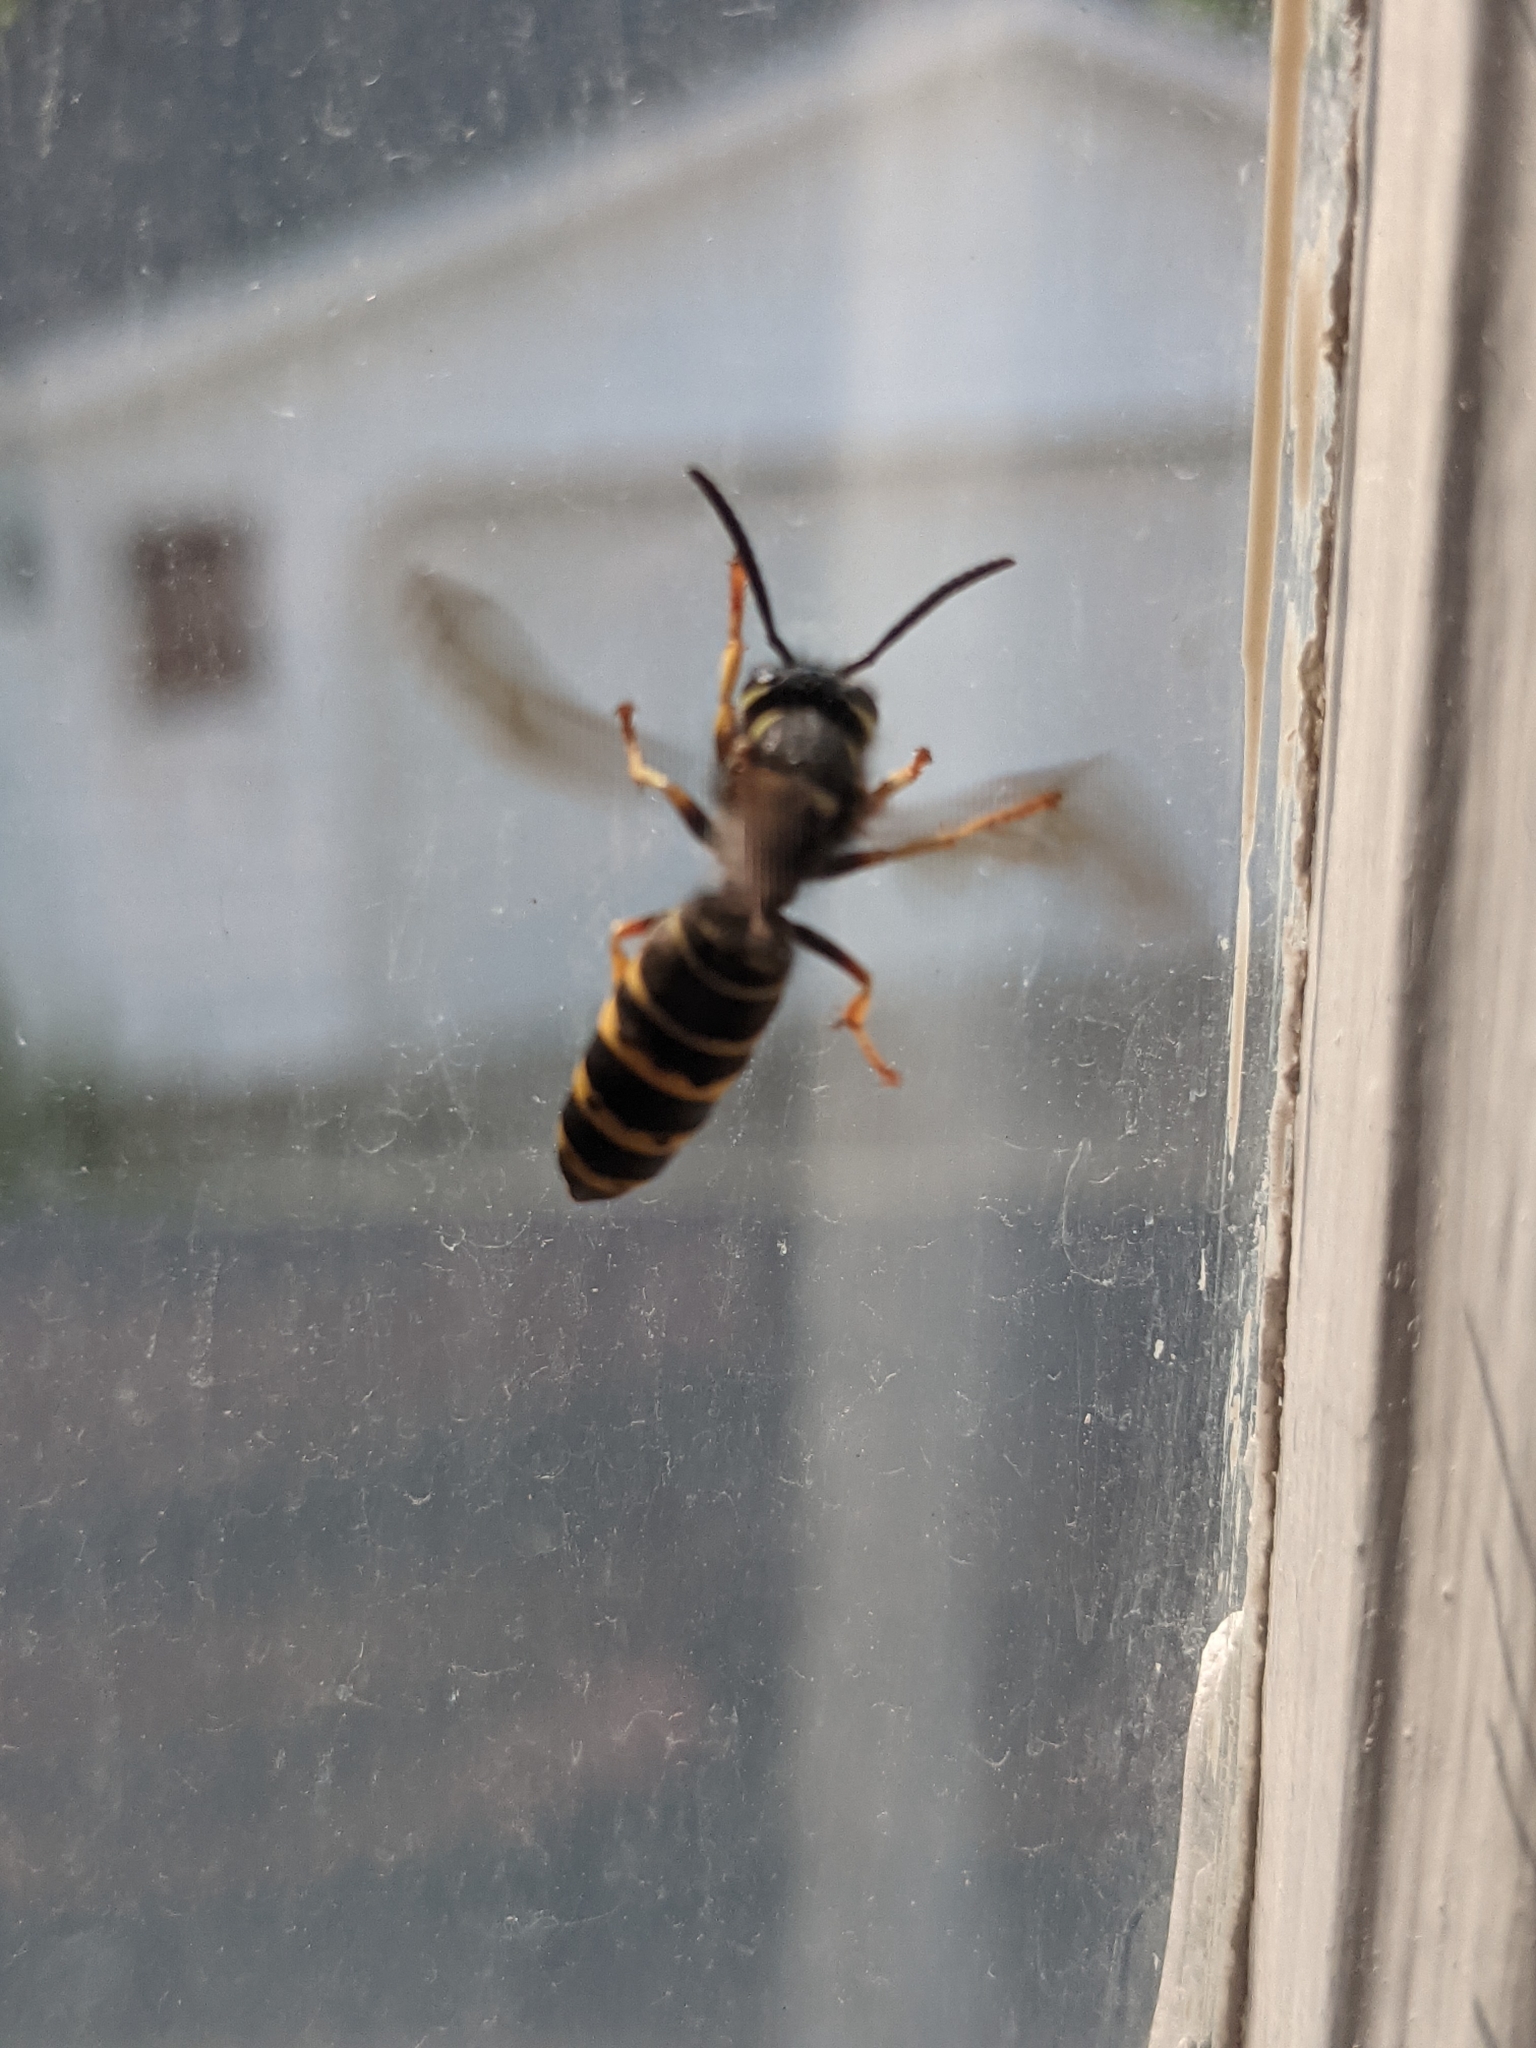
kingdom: Animalia
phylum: Arthropoda
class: Insecta
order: Hymenoptera
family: Vespidae
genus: Vespula
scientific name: Vespula vidua
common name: Widow yellowjacket
